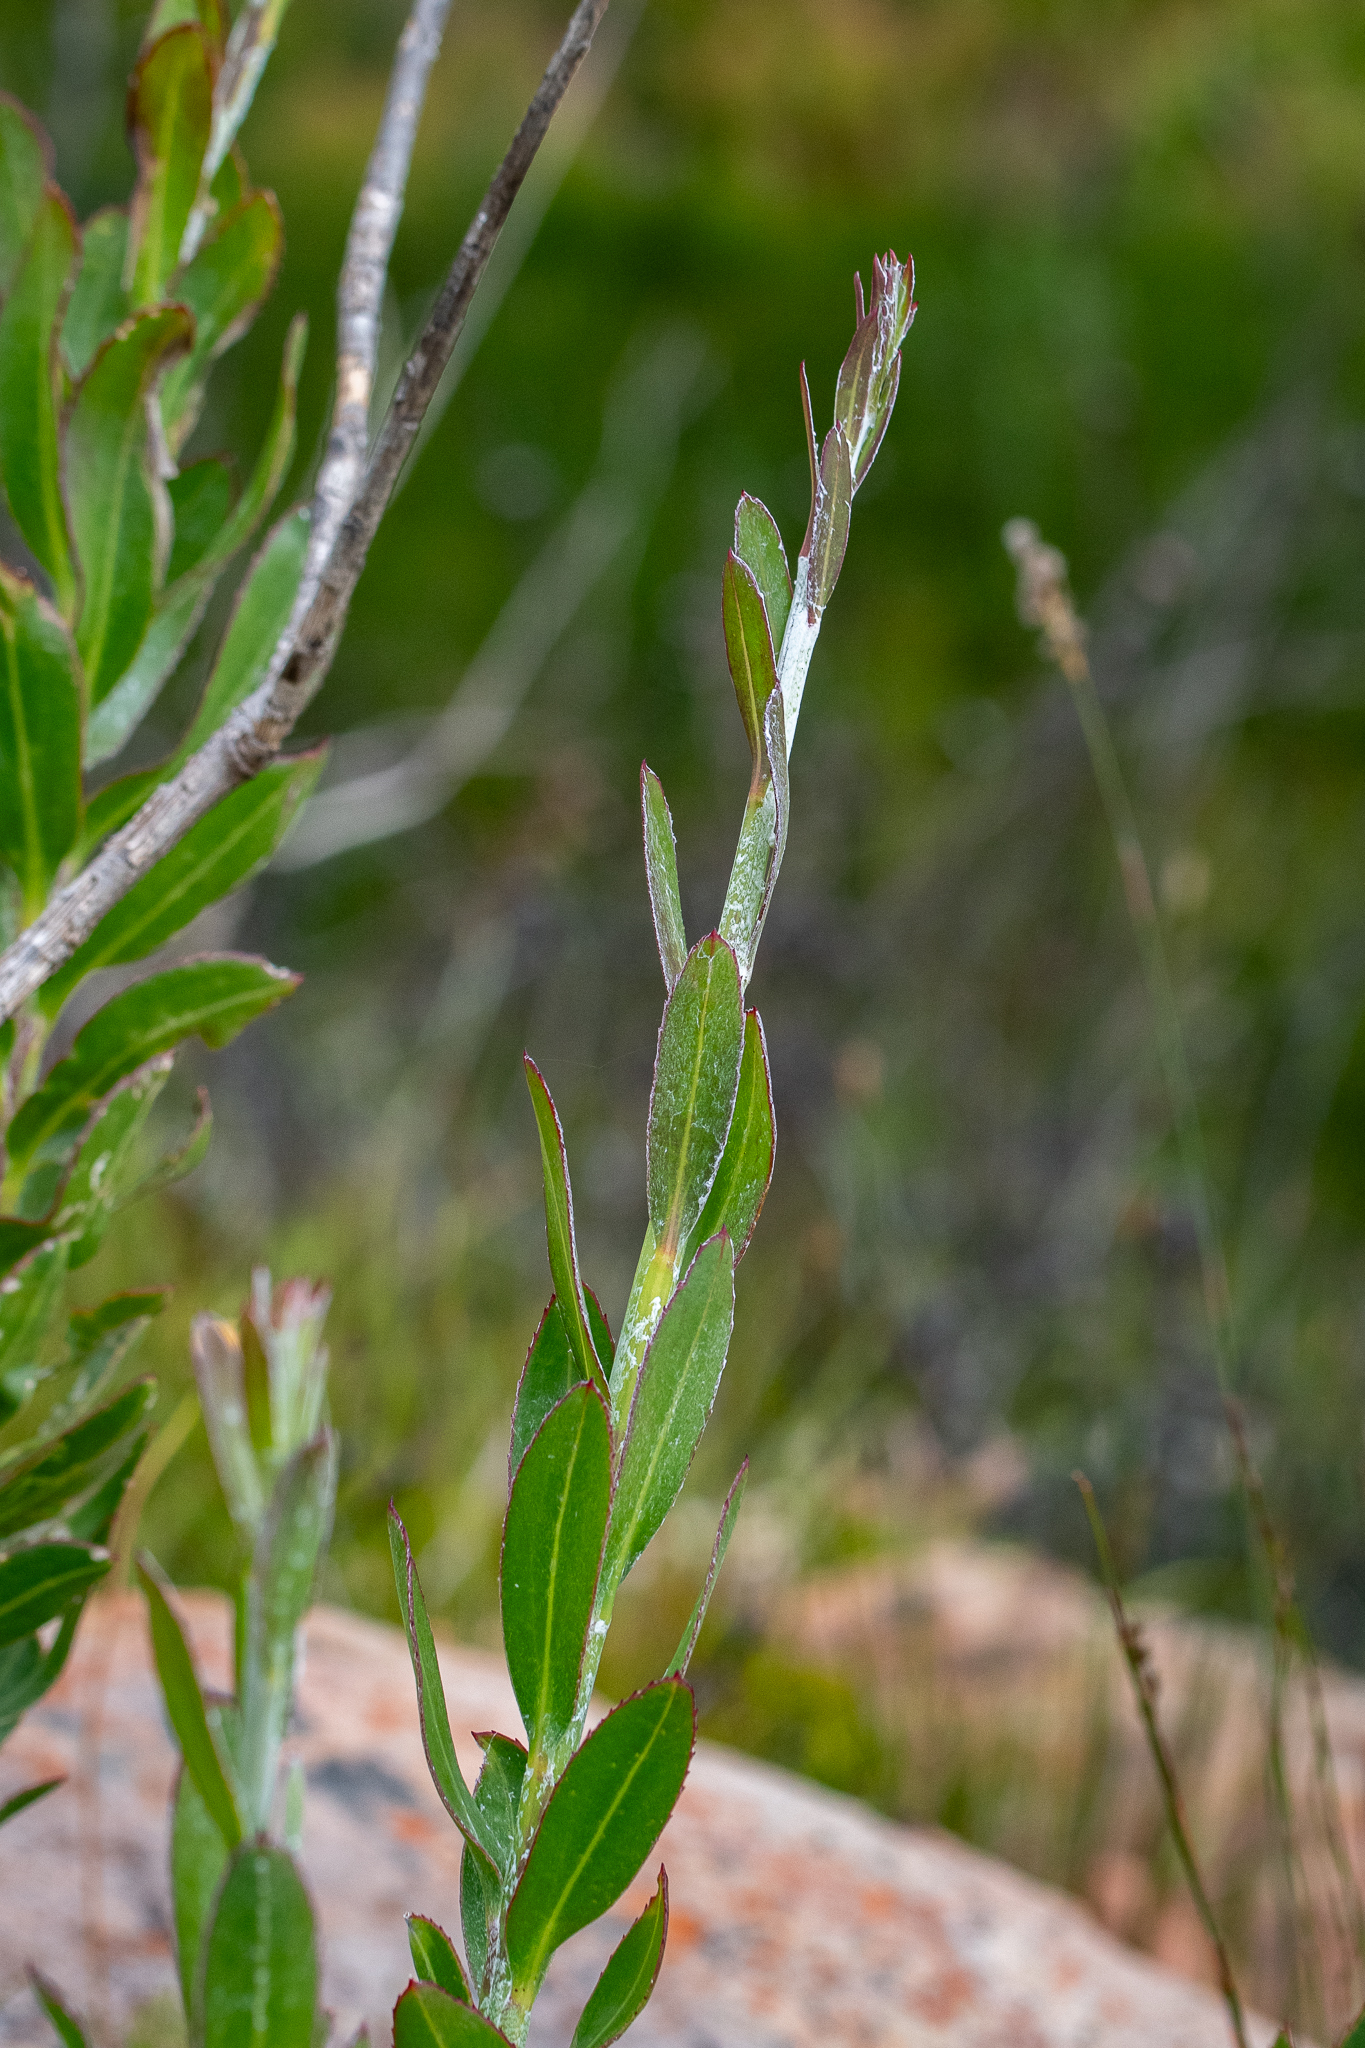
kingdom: Plantae
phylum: Tracheophyta
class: Magnoliopsida
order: Asterales
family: Asteraceae
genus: Osteospermum
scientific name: Osteospermum junceum
